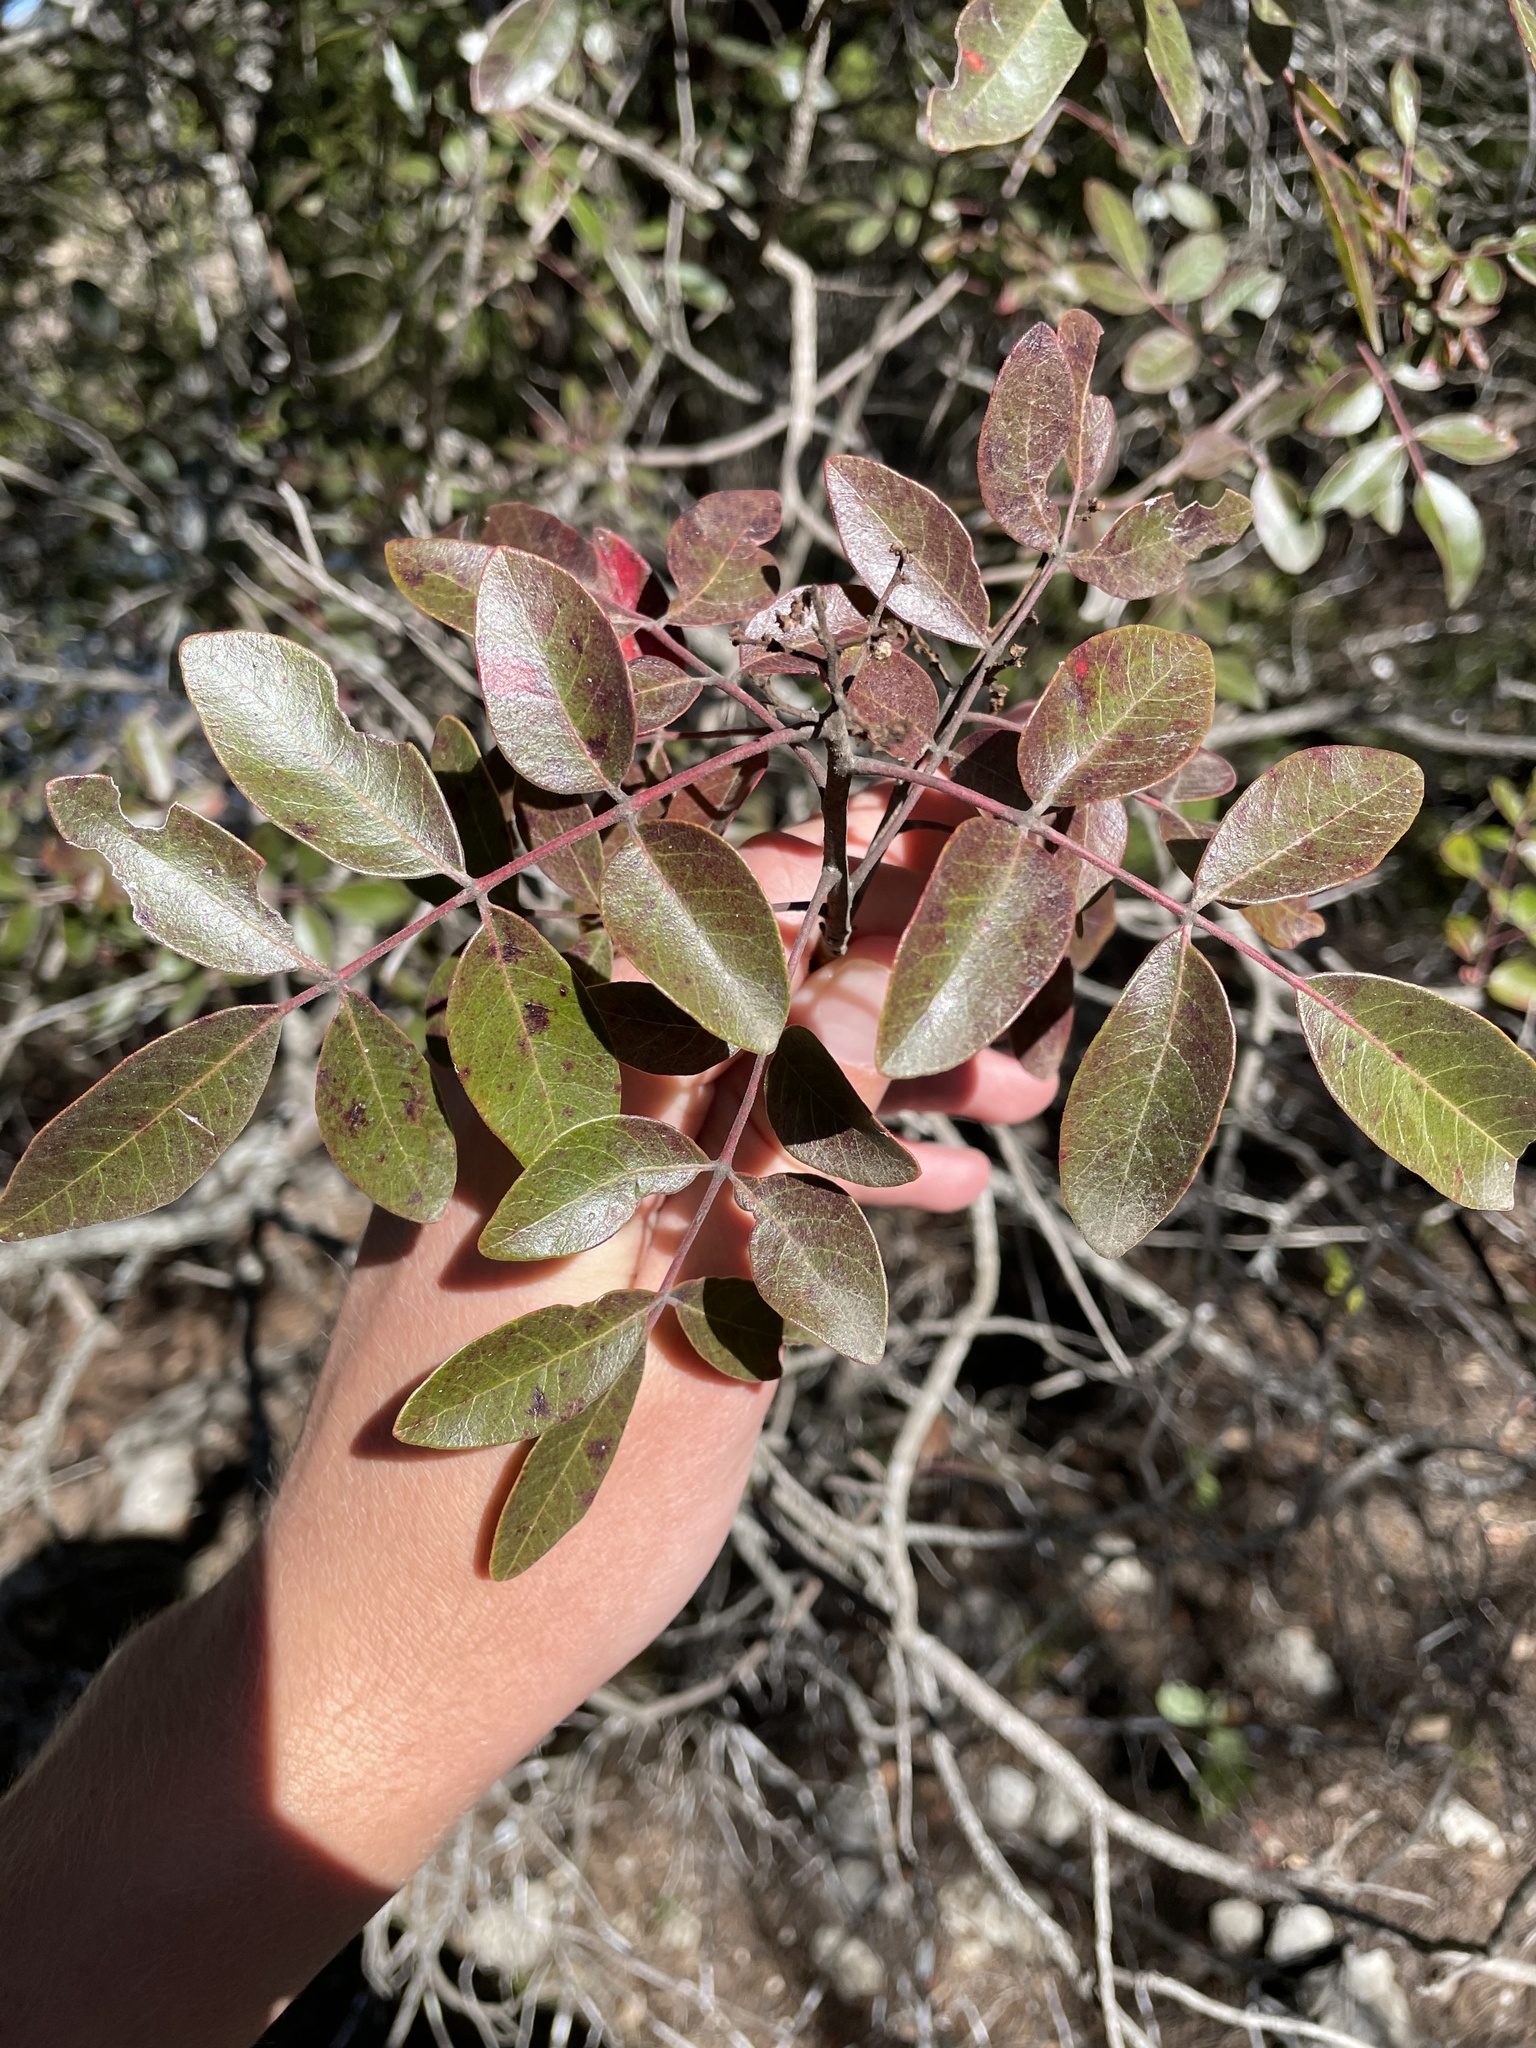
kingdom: Plantae
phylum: Tracheophyta
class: Magnoliopsida
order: Sapindales
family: Anacardiaceae
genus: Rhus
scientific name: Rhus virens
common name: Evergreen sumac
